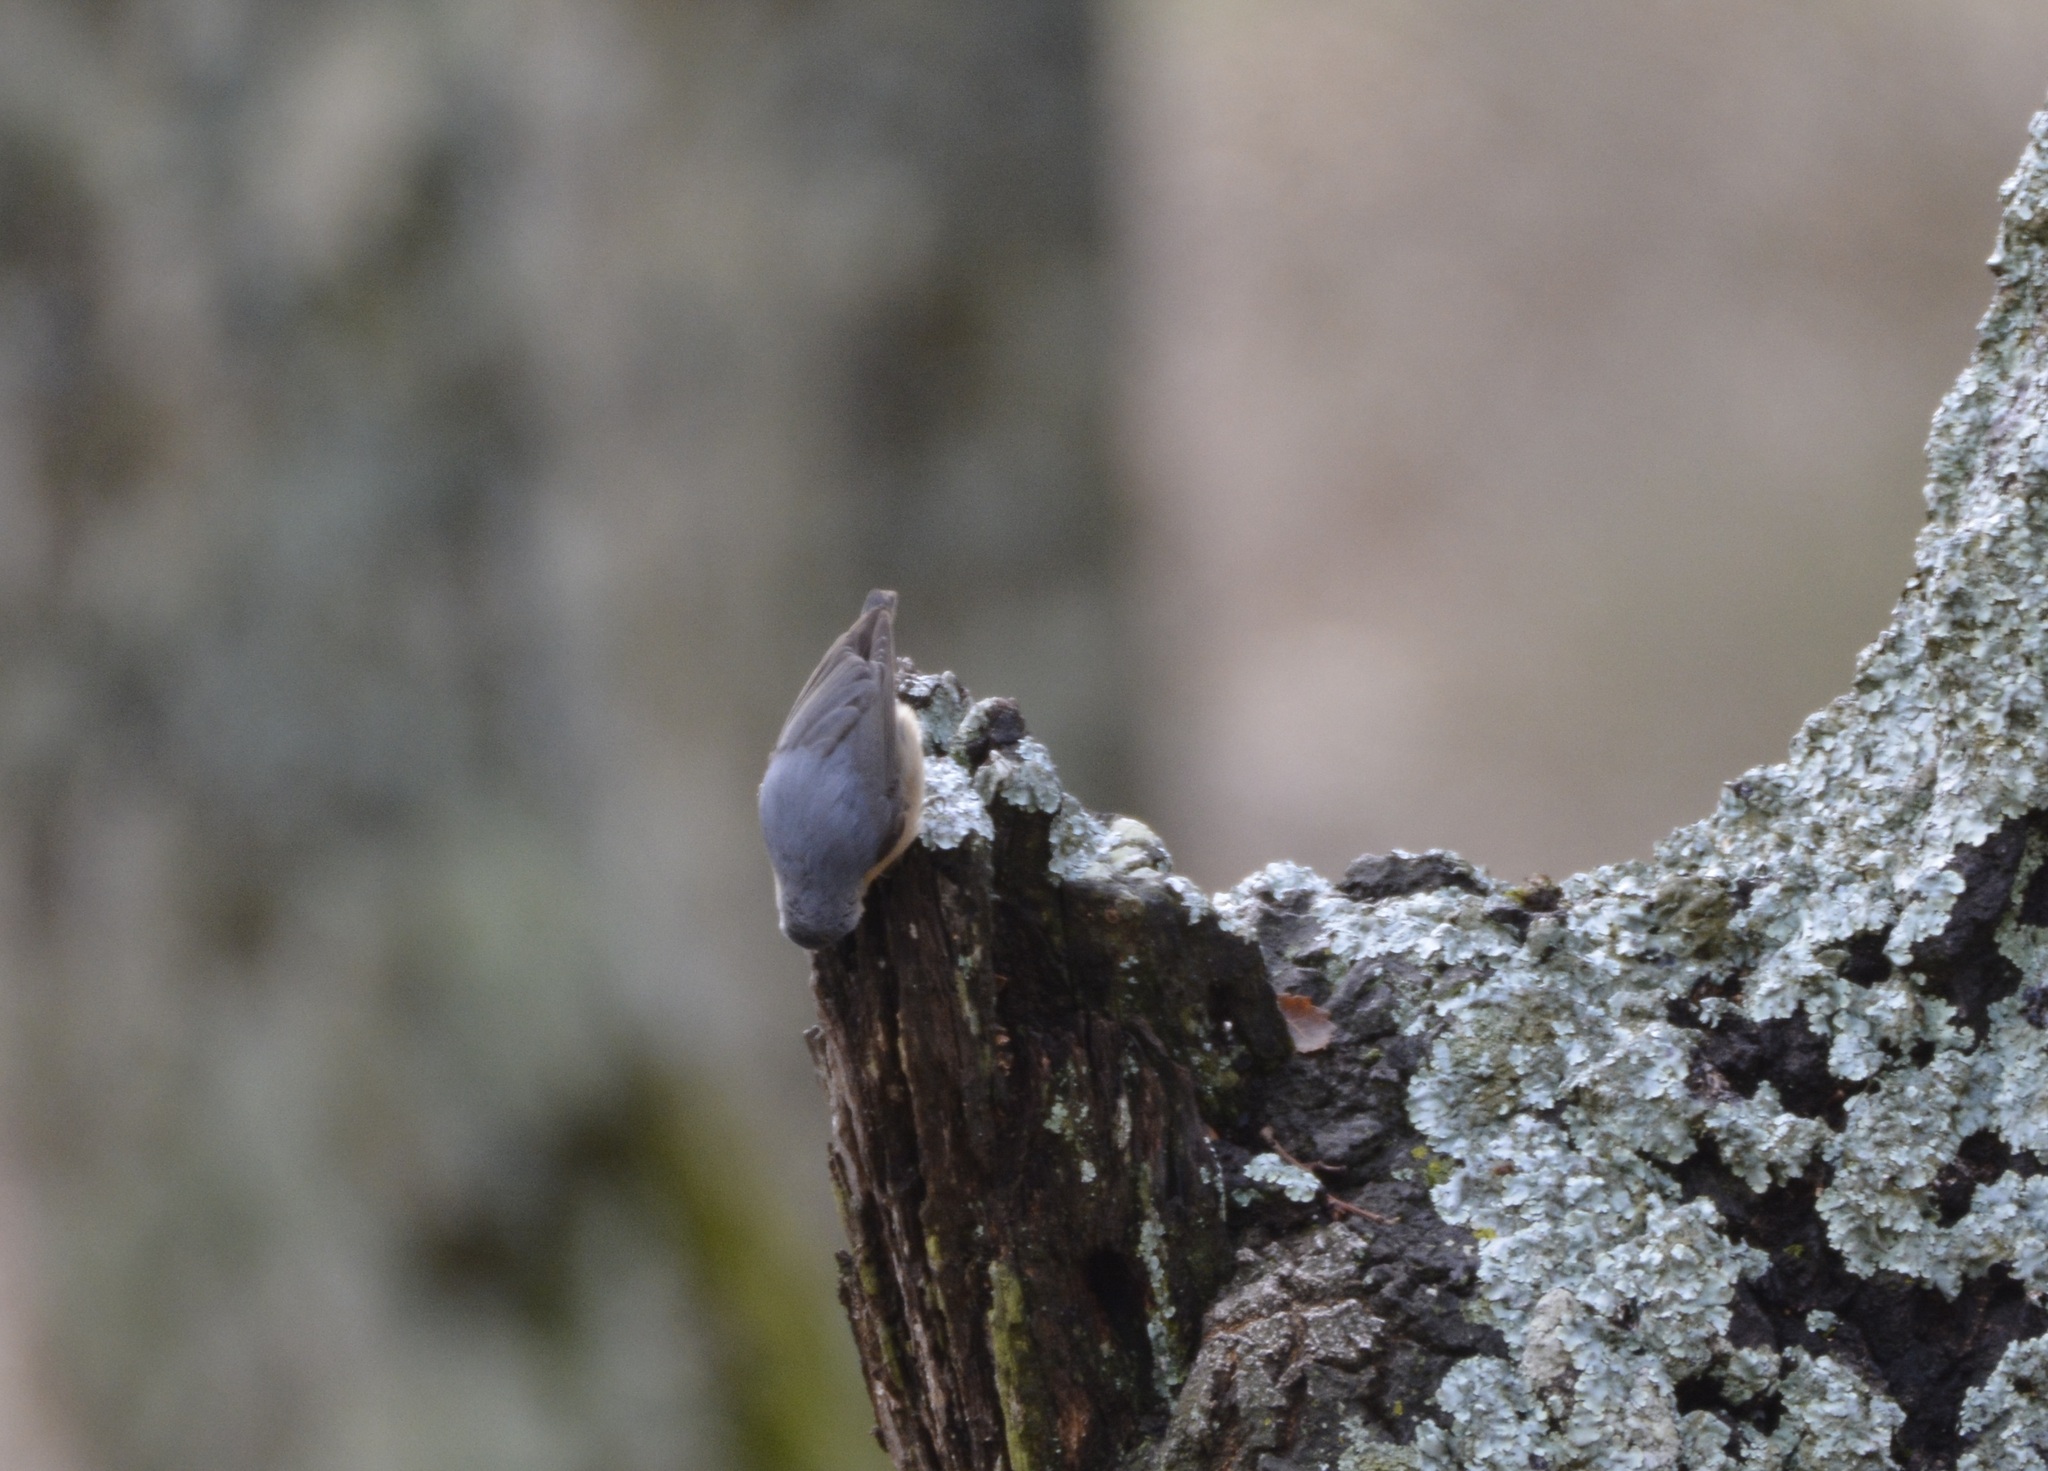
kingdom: Animalia
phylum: Chordata
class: Aves
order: Passeriformes
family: Sittidae
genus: Sitta
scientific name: Sitta ledanti
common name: Algerian nuthatch
